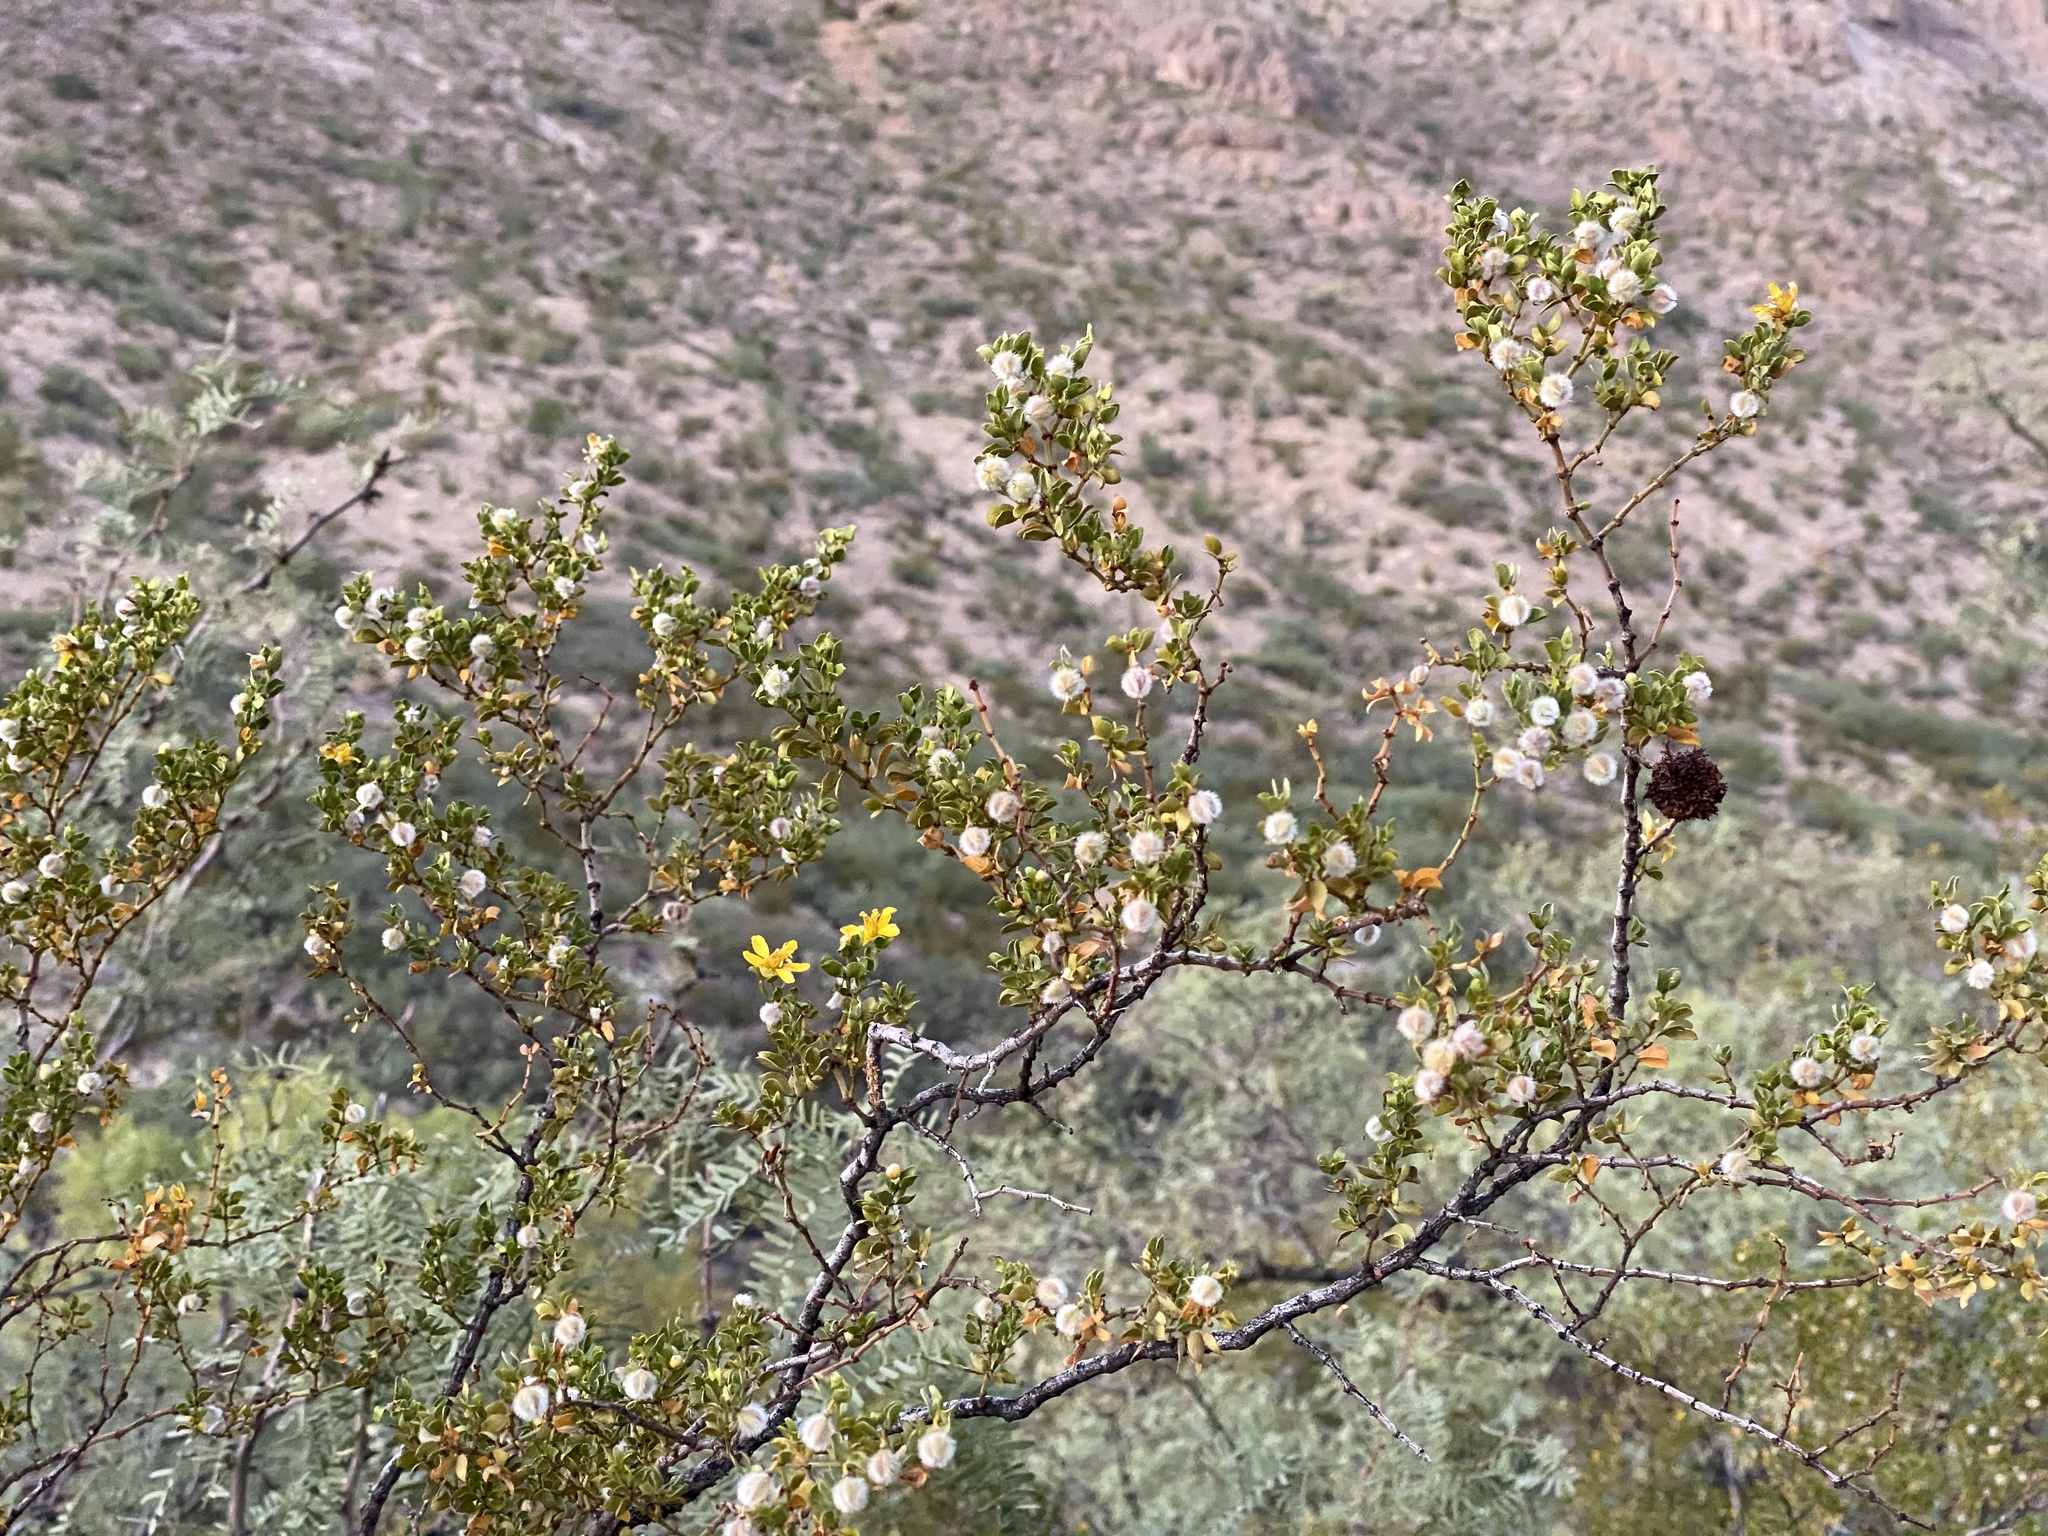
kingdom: Plantae
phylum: Tracheophyta
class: Magnoliopsida
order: Zygophyllales
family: Zygophyllaceae
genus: Larrea
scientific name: Larrea tridentata
